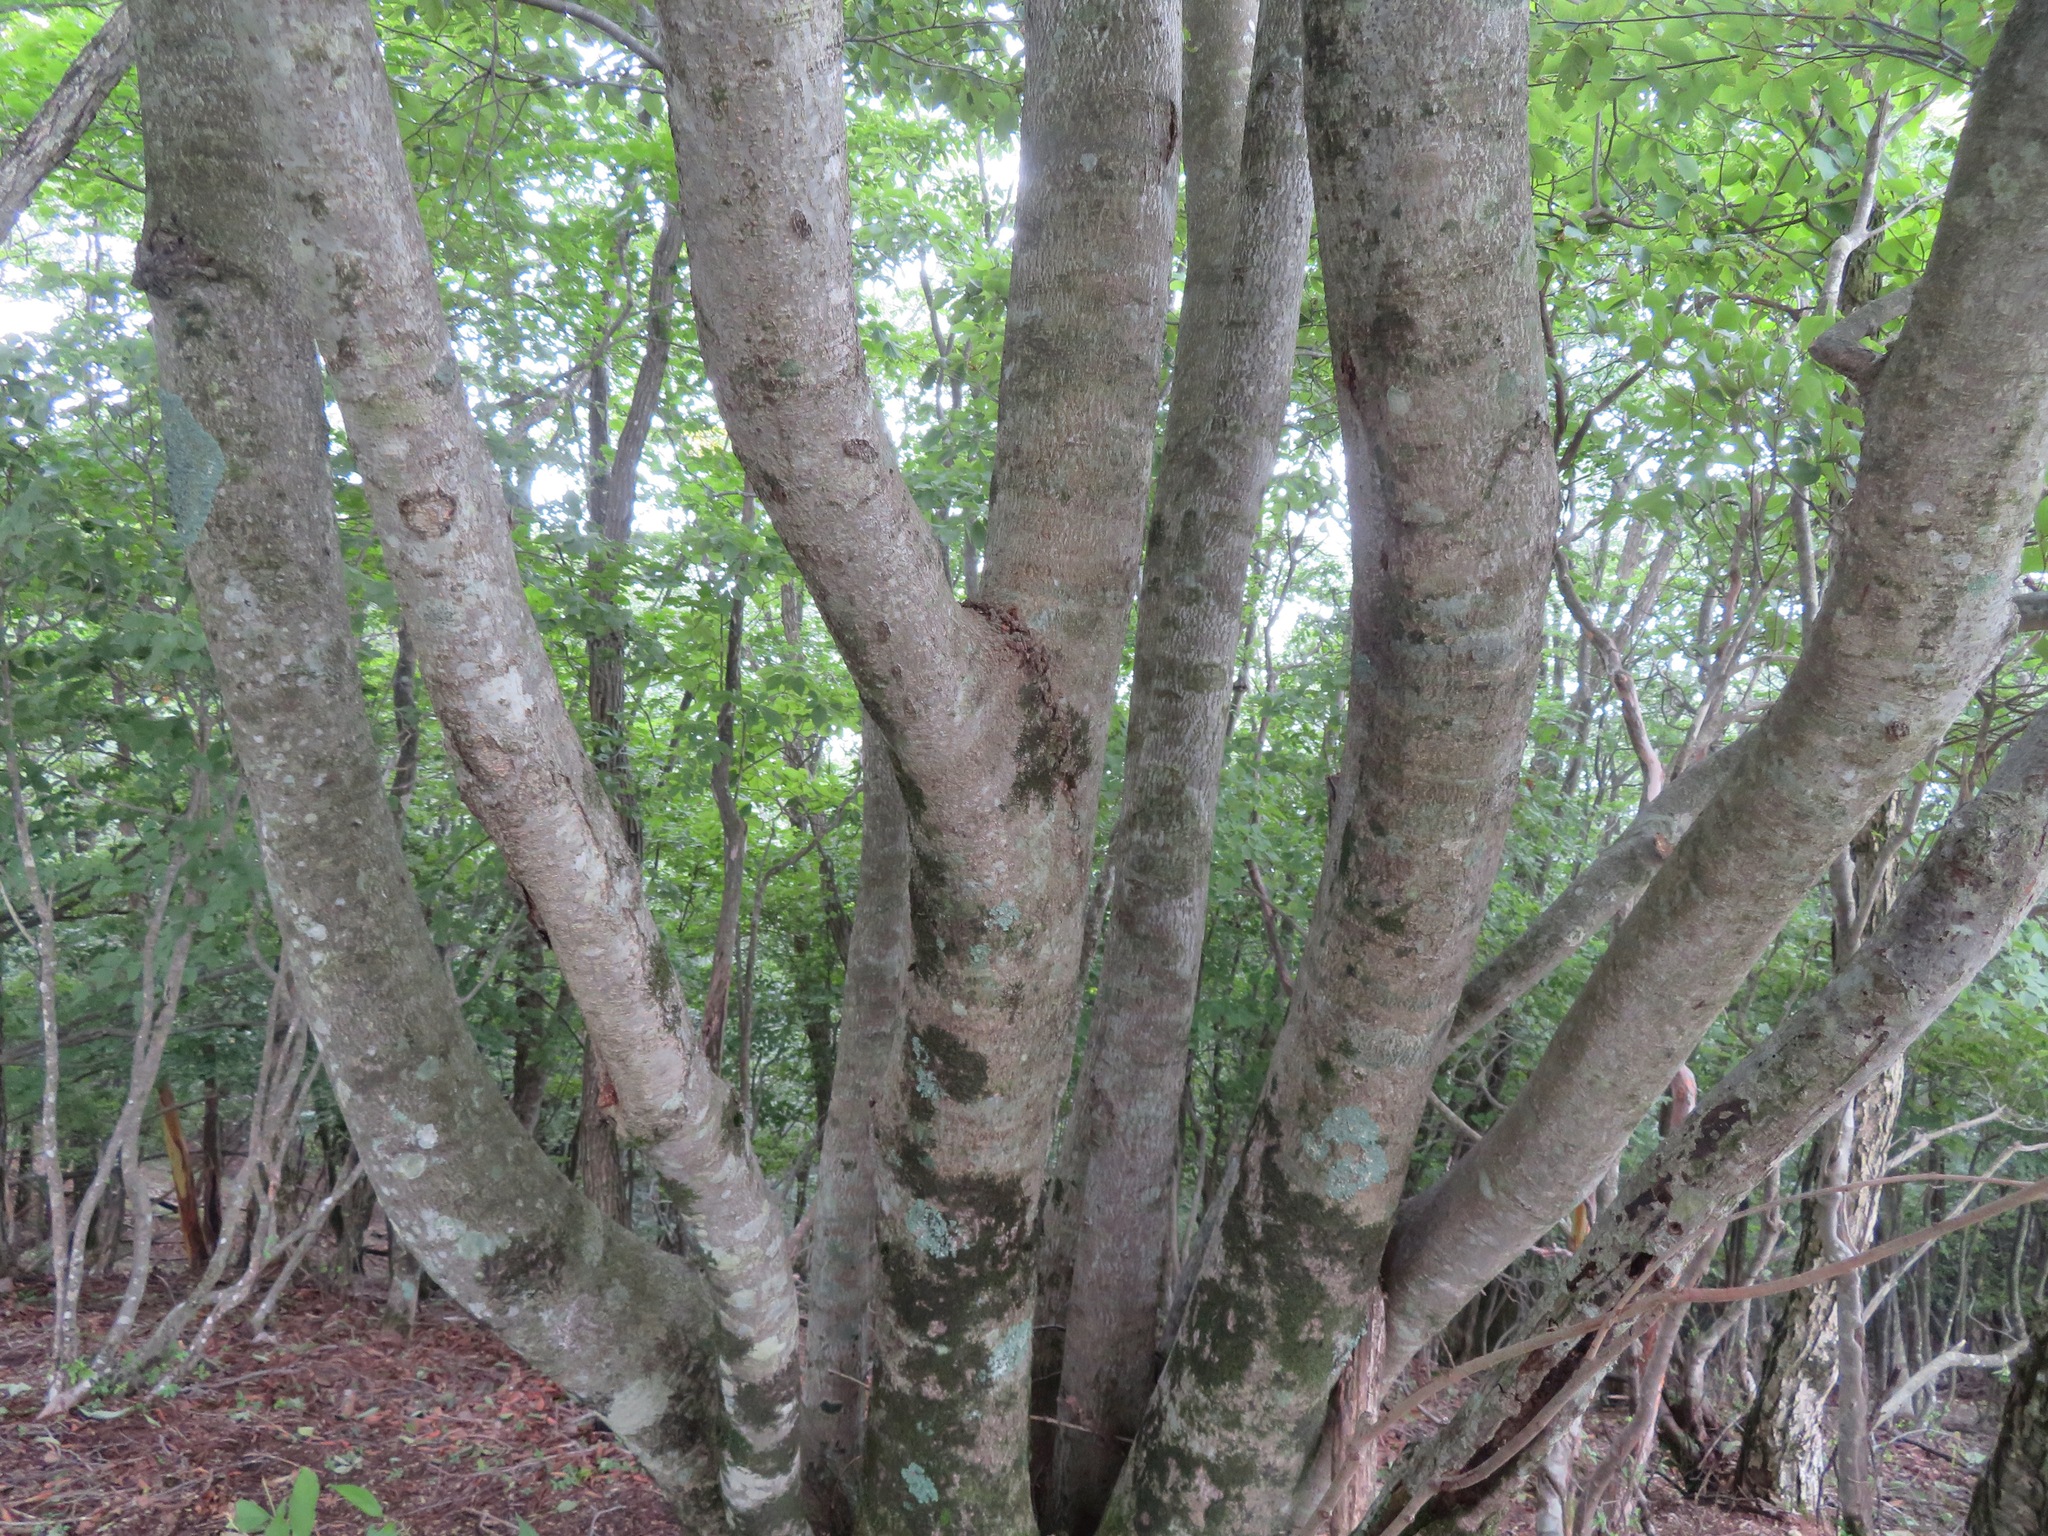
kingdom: Plantae
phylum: Tracheophyta
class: Magnoliopsida
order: Fagales
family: Fagaceae
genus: Fagus
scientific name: Fagus japonica
